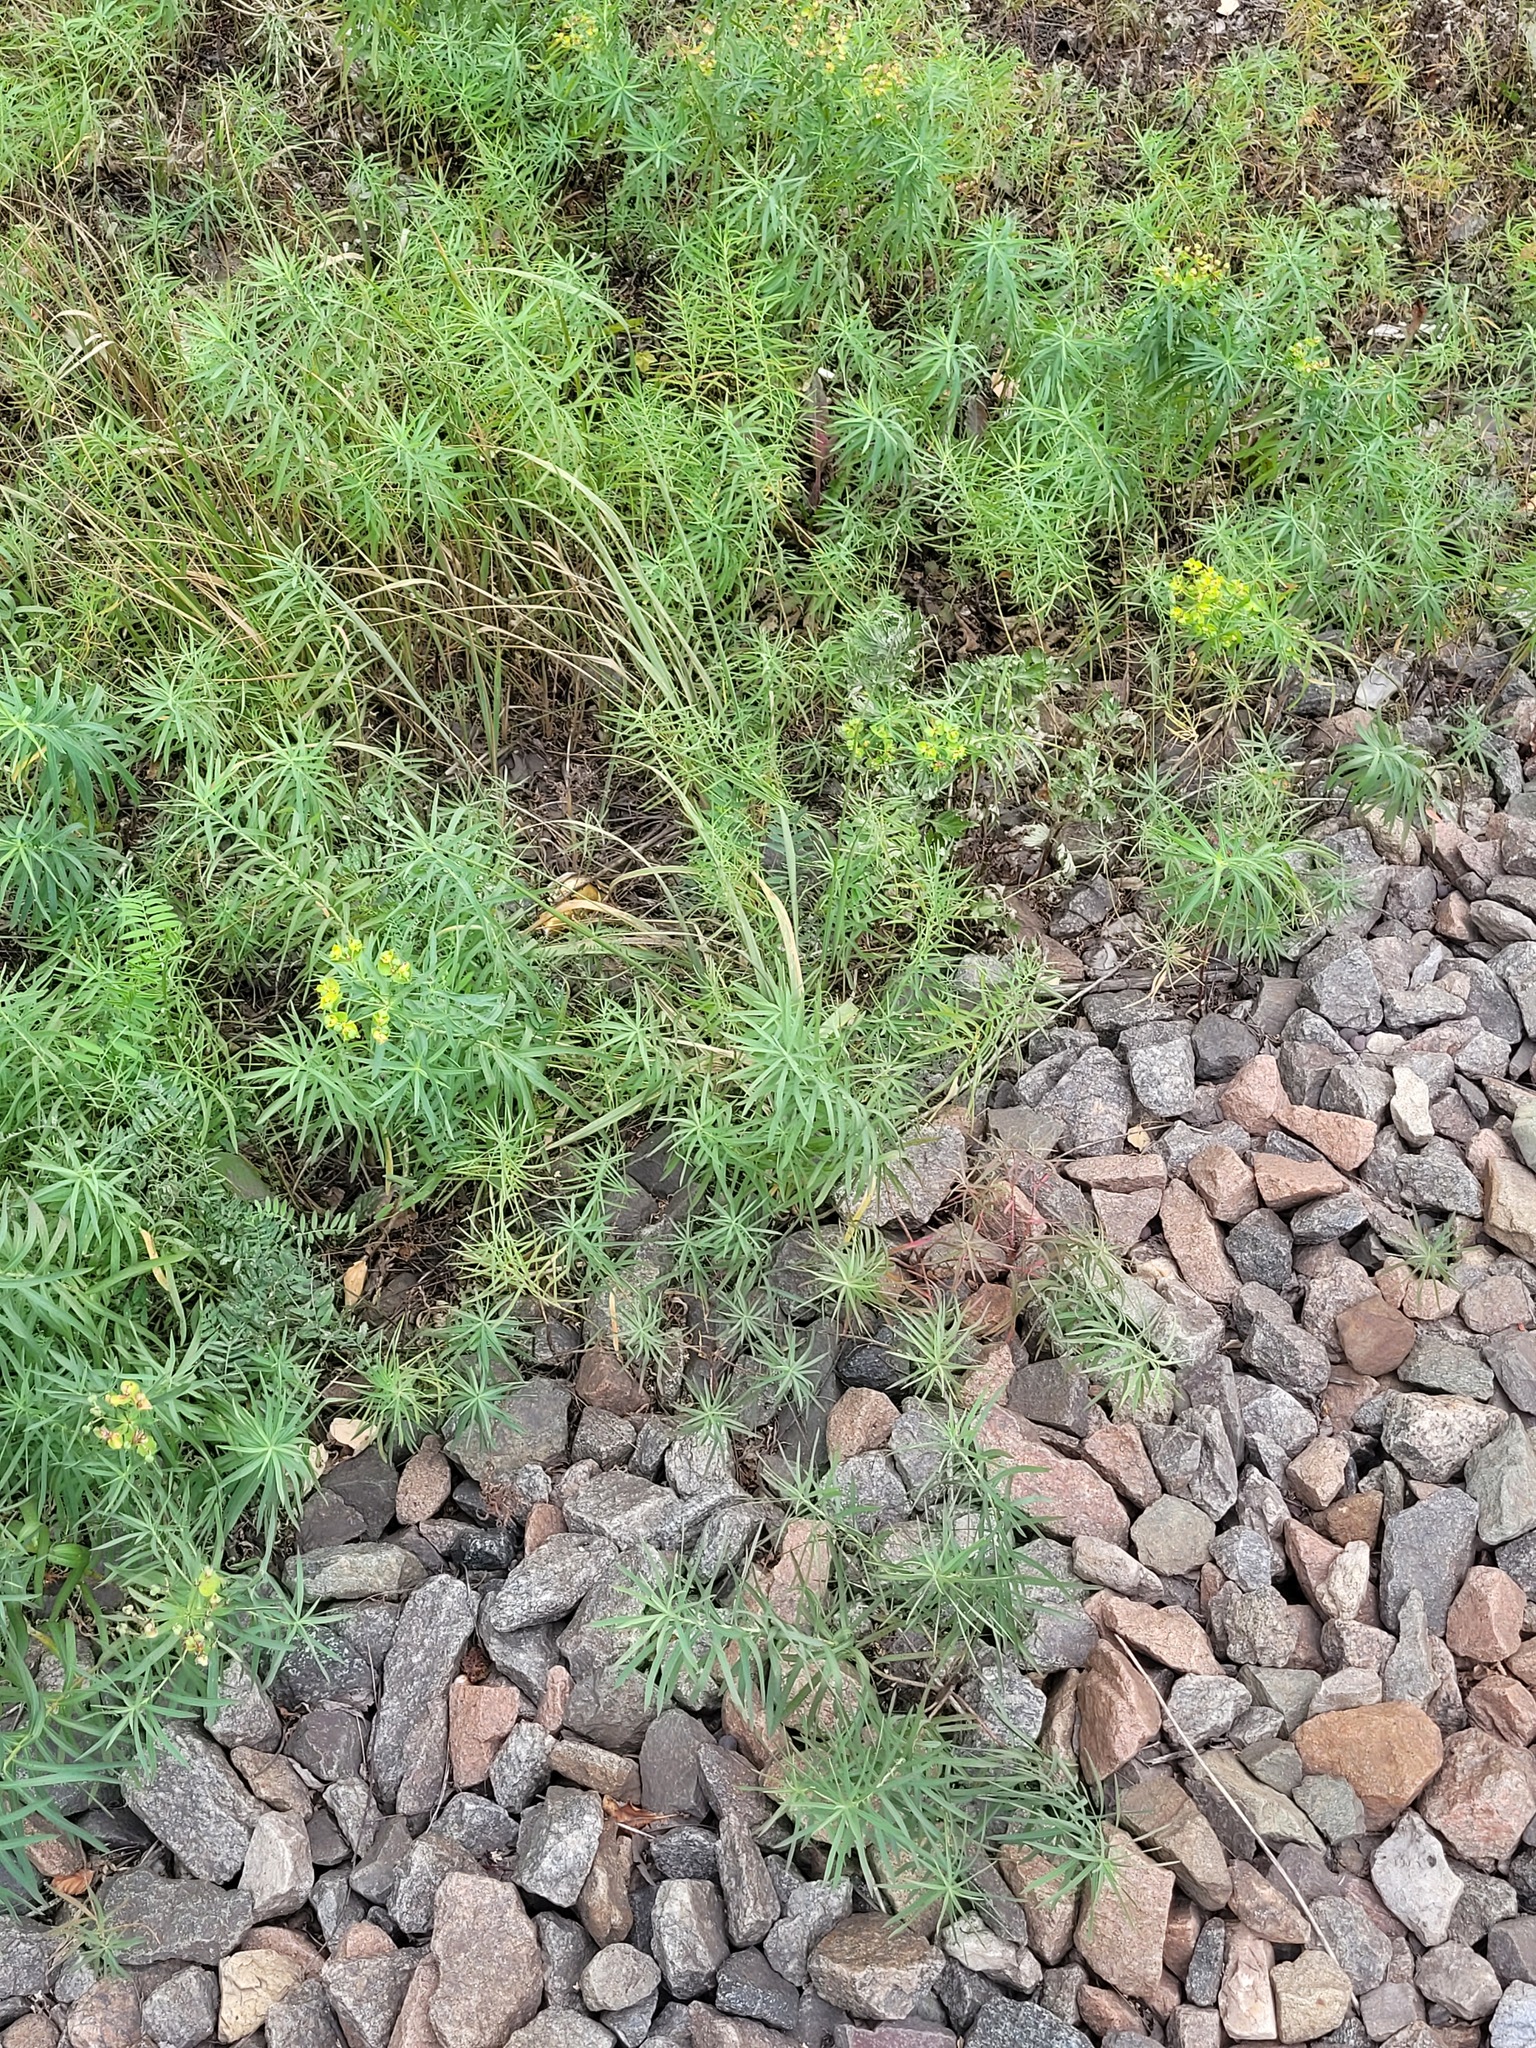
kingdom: Plantae
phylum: Tracheophyta
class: Magnoliopsida
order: Malpighiales
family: Euphorbiaceae
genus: Euphorbia
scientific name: Euphorbia virgata
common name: Leafy spurge
